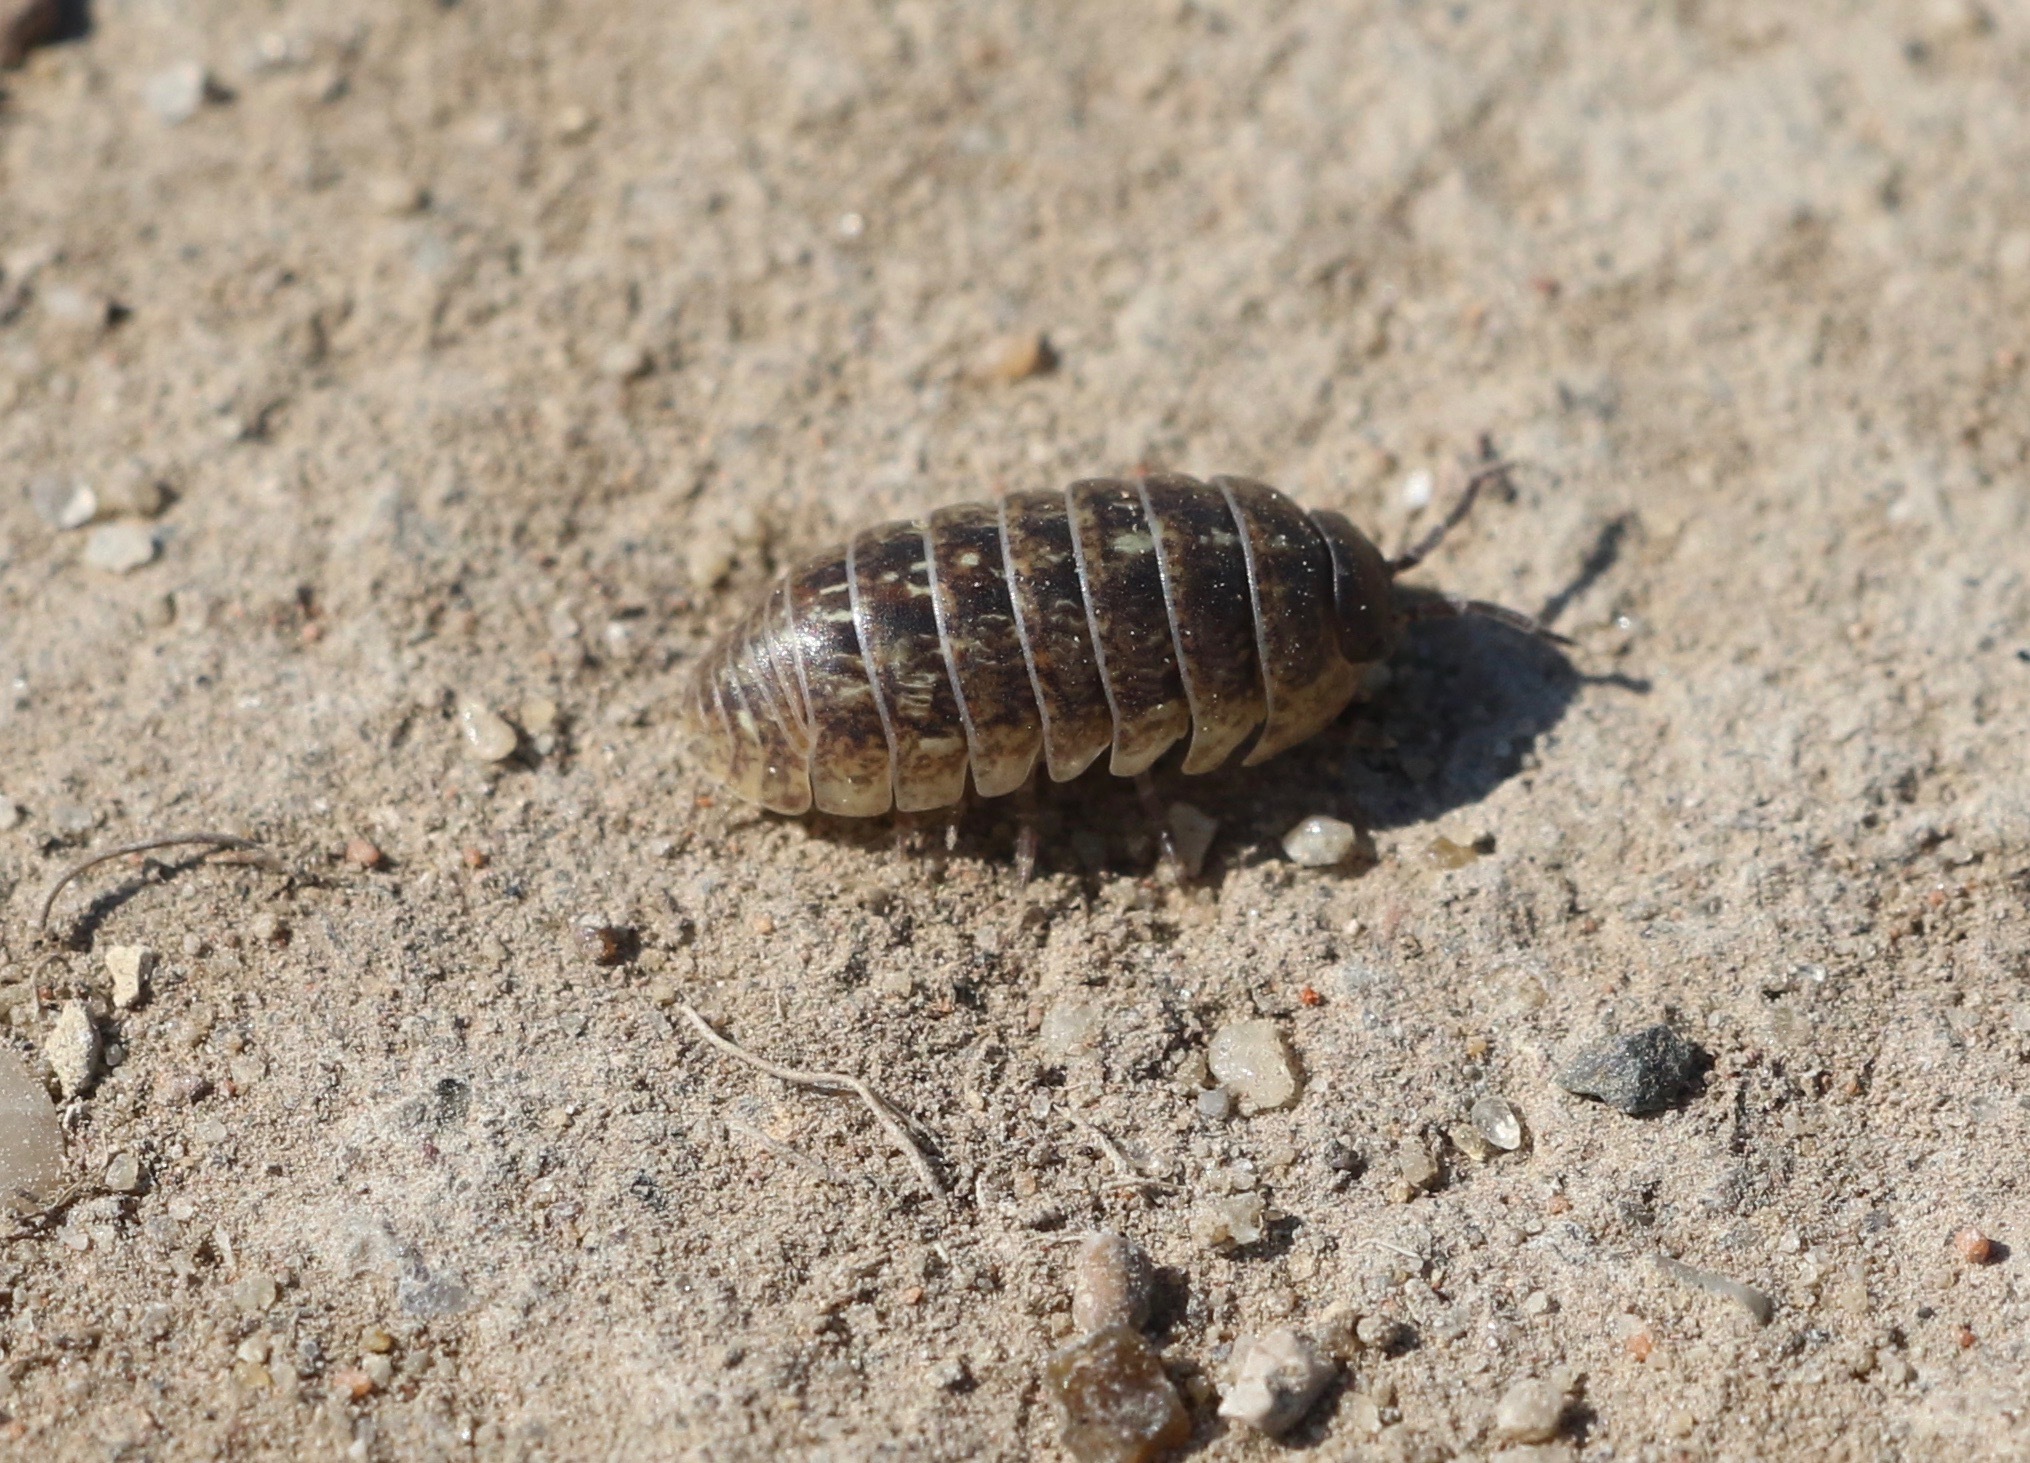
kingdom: Animalia
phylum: Arthropoda
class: Malacostraca
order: Isopoda
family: Armadillidiidae
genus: Armadillidium
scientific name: Armadillidium vulgare
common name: Common pill woodlouse
